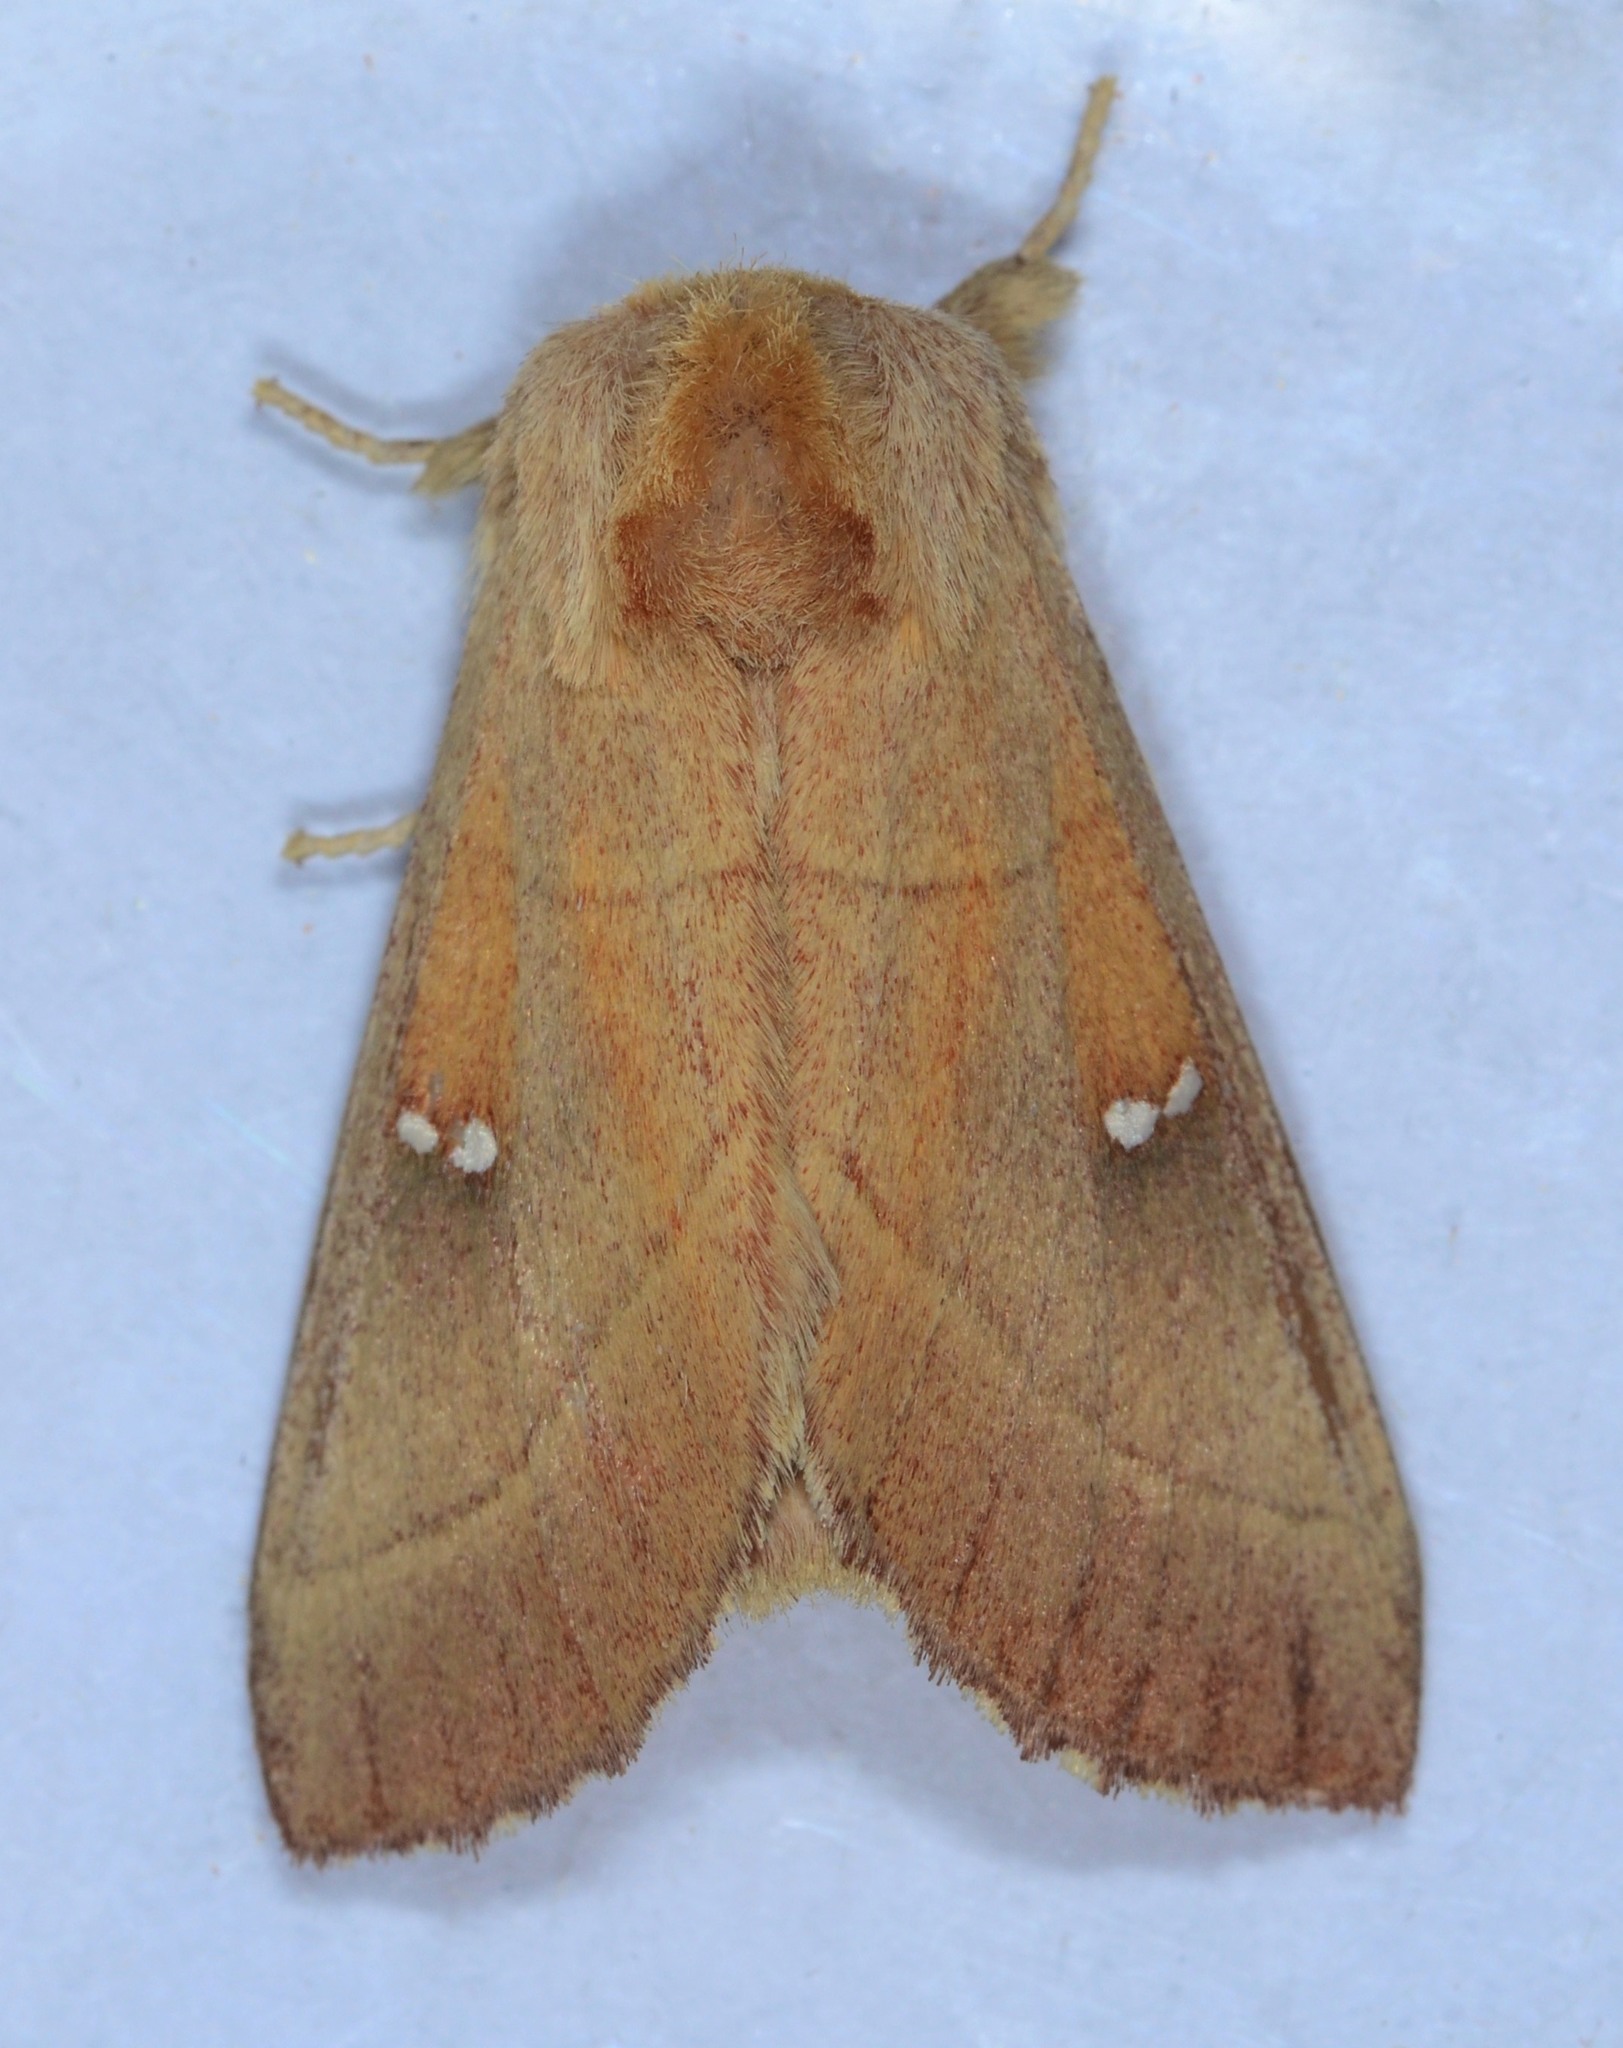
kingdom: Animalia
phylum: Arthropoda
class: Insecta
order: Lepidoptera
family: Notodontidae
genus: Nadata
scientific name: Nadata gibbosa
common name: White-dotted prominent
